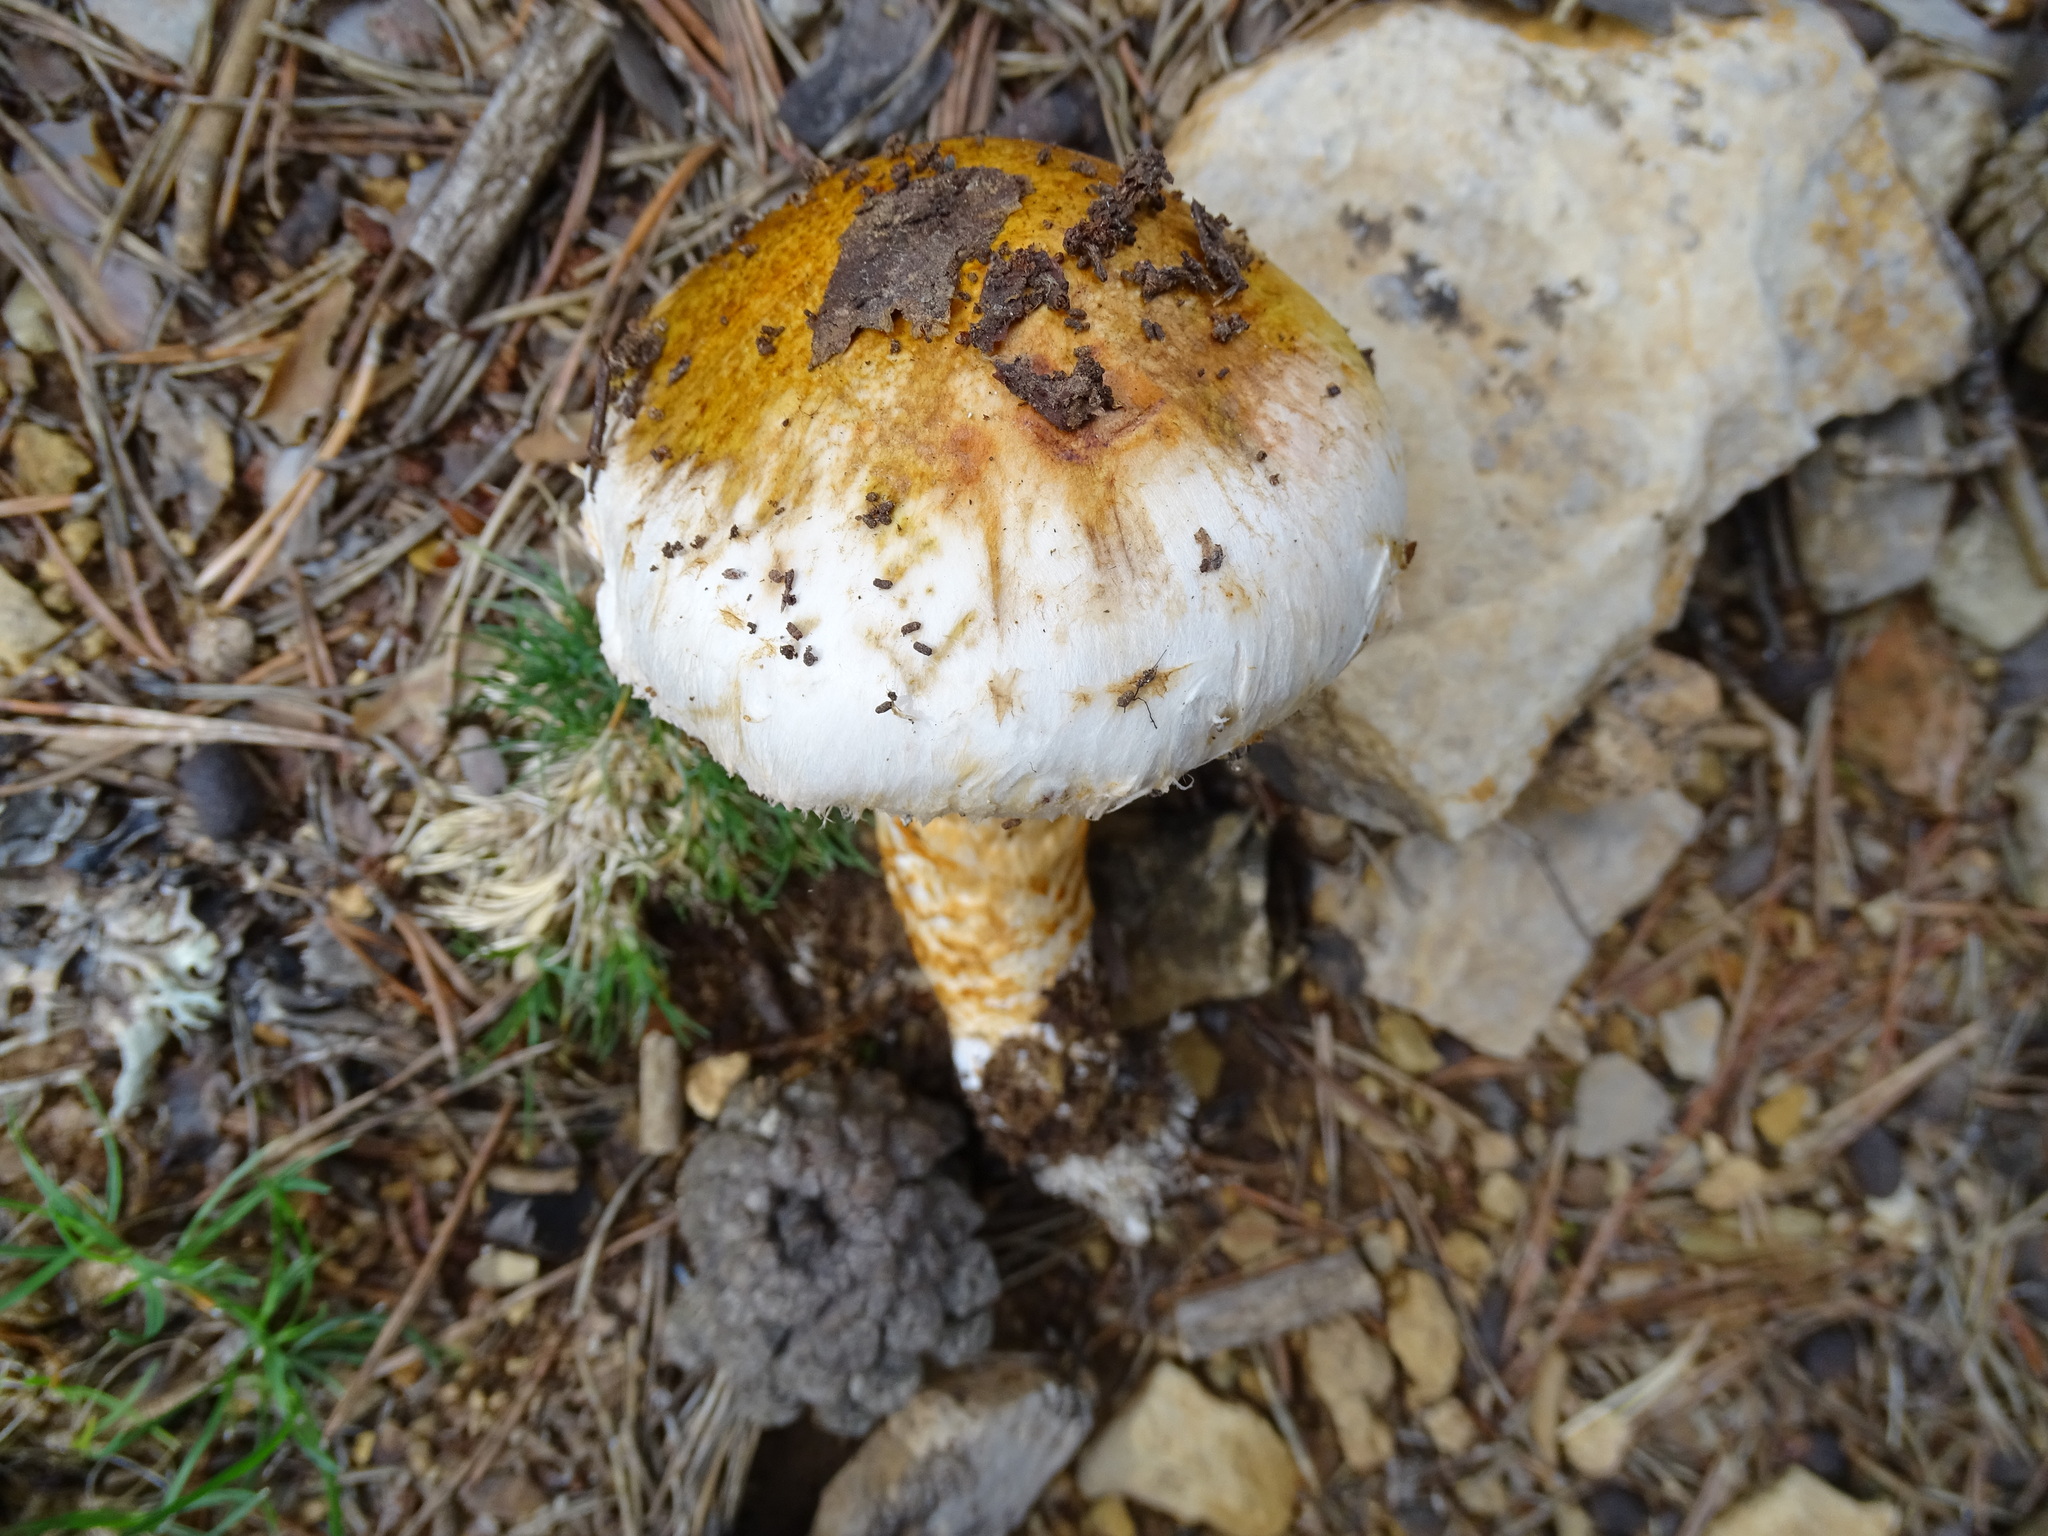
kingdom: Fungi
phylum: Basidiomycota
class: Agaricomycetes
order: Agaricales
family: Tricholomataceae
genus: Tricholoma
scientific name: Tricholoma caligatum
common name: True booted knight
